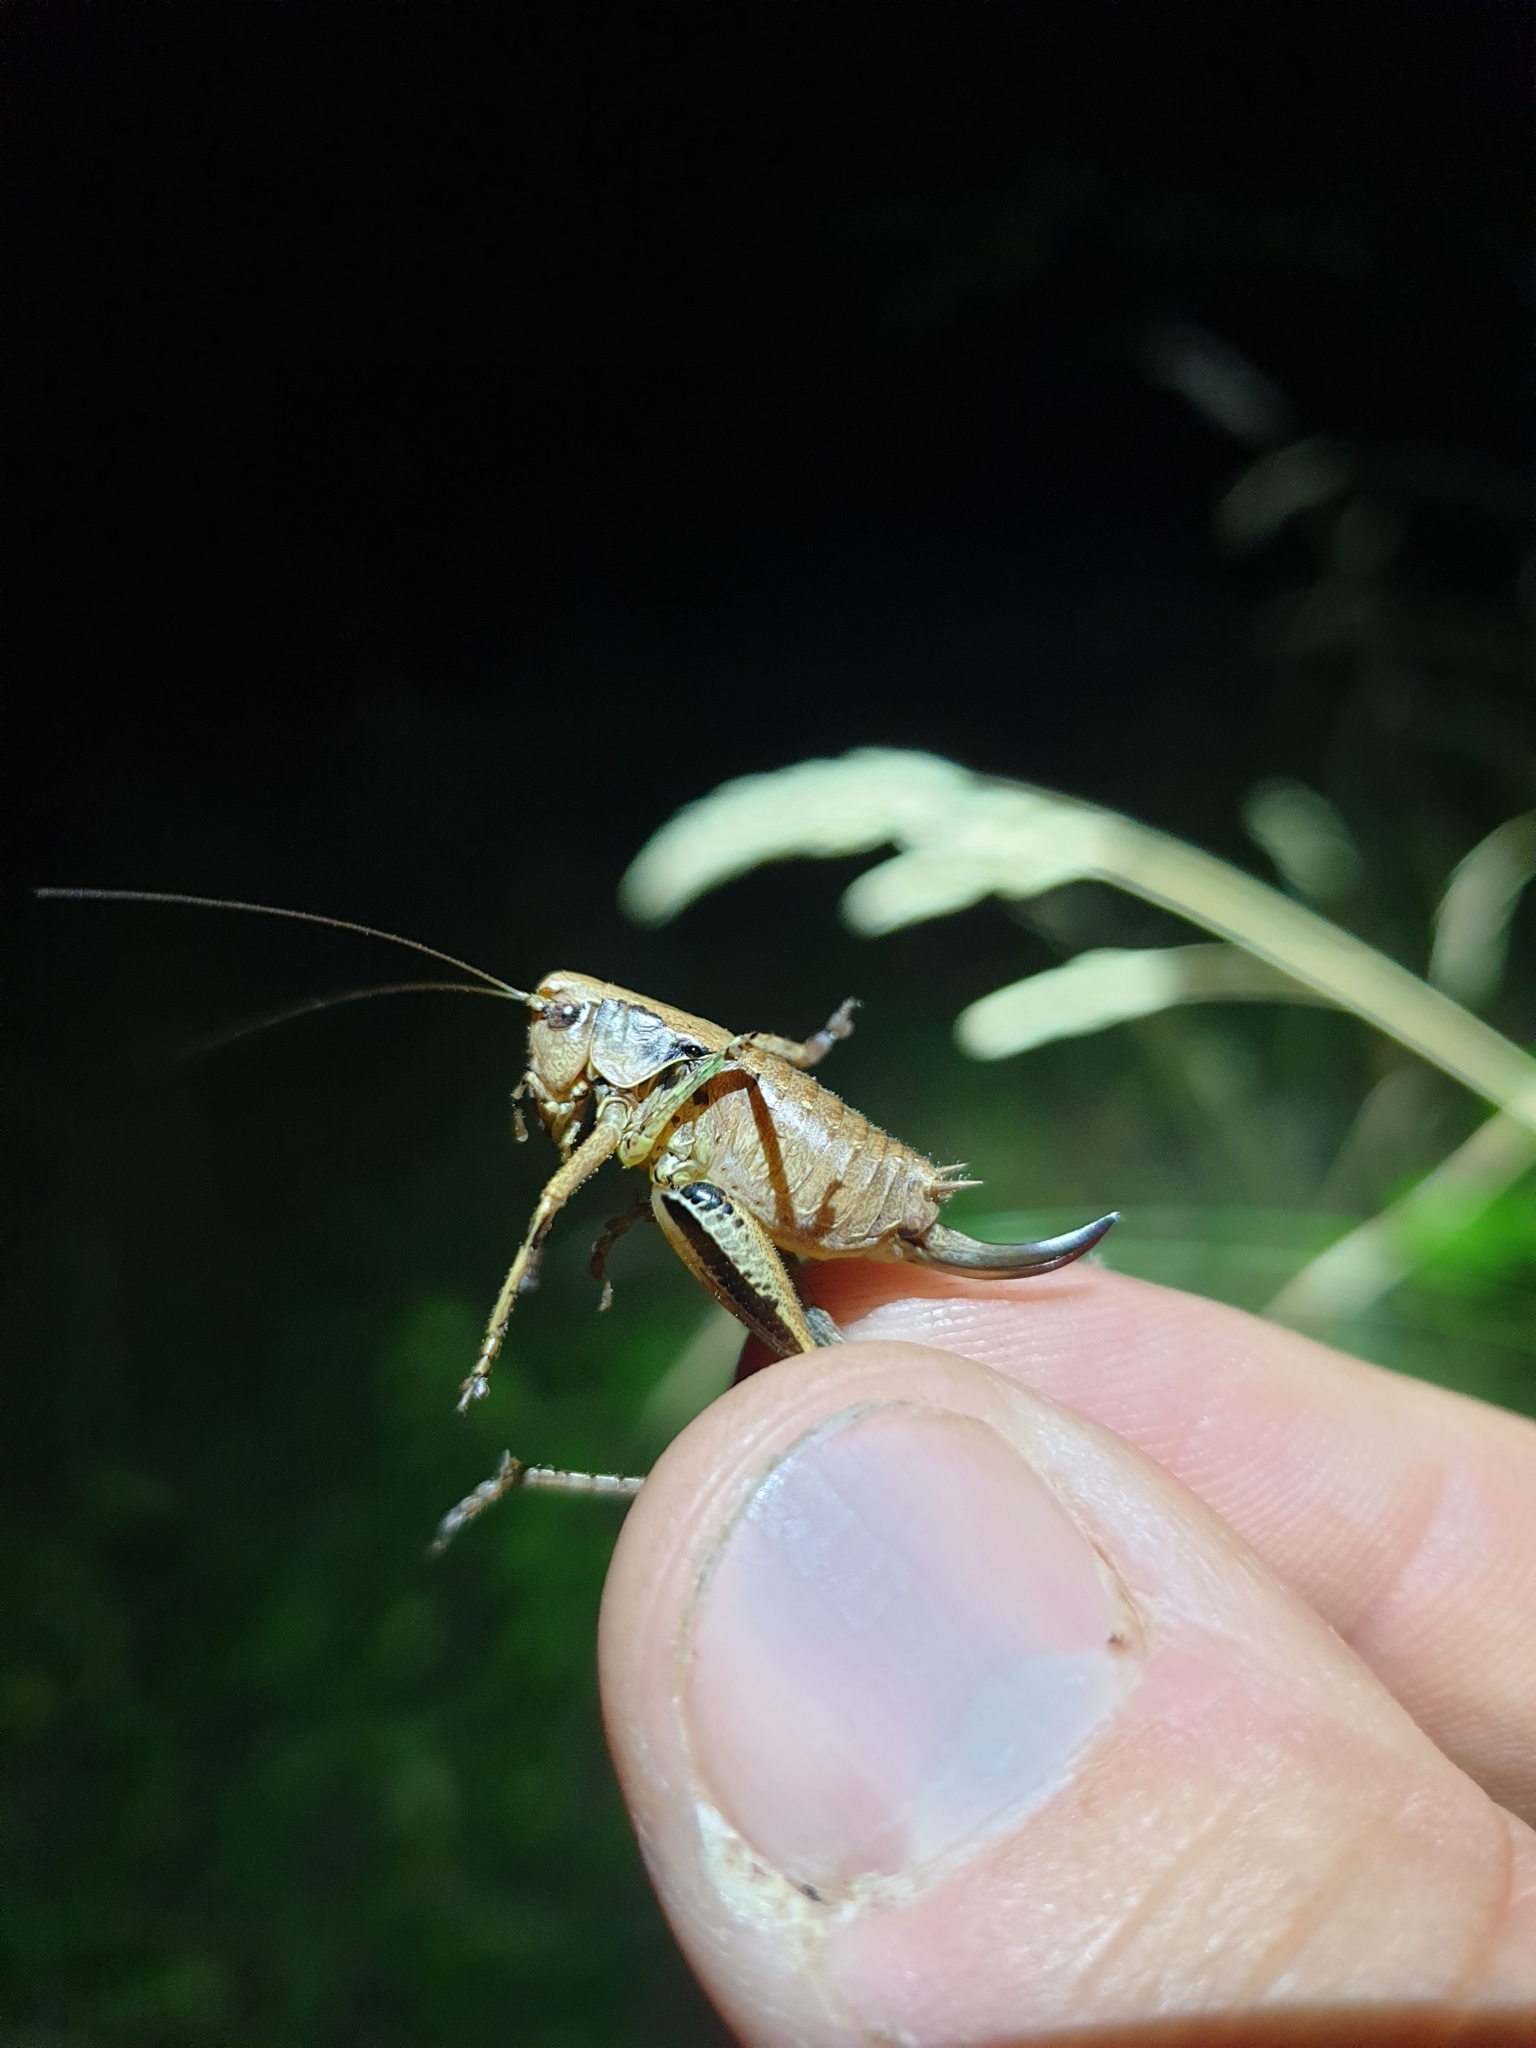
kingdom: Animalia
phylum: Arthropoda
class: Insecta
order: Orthoptera
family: Tettigoniidae
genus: Pholidoptera
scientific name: Pholidoptera griseoaptera
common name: Dark bush-cricket
